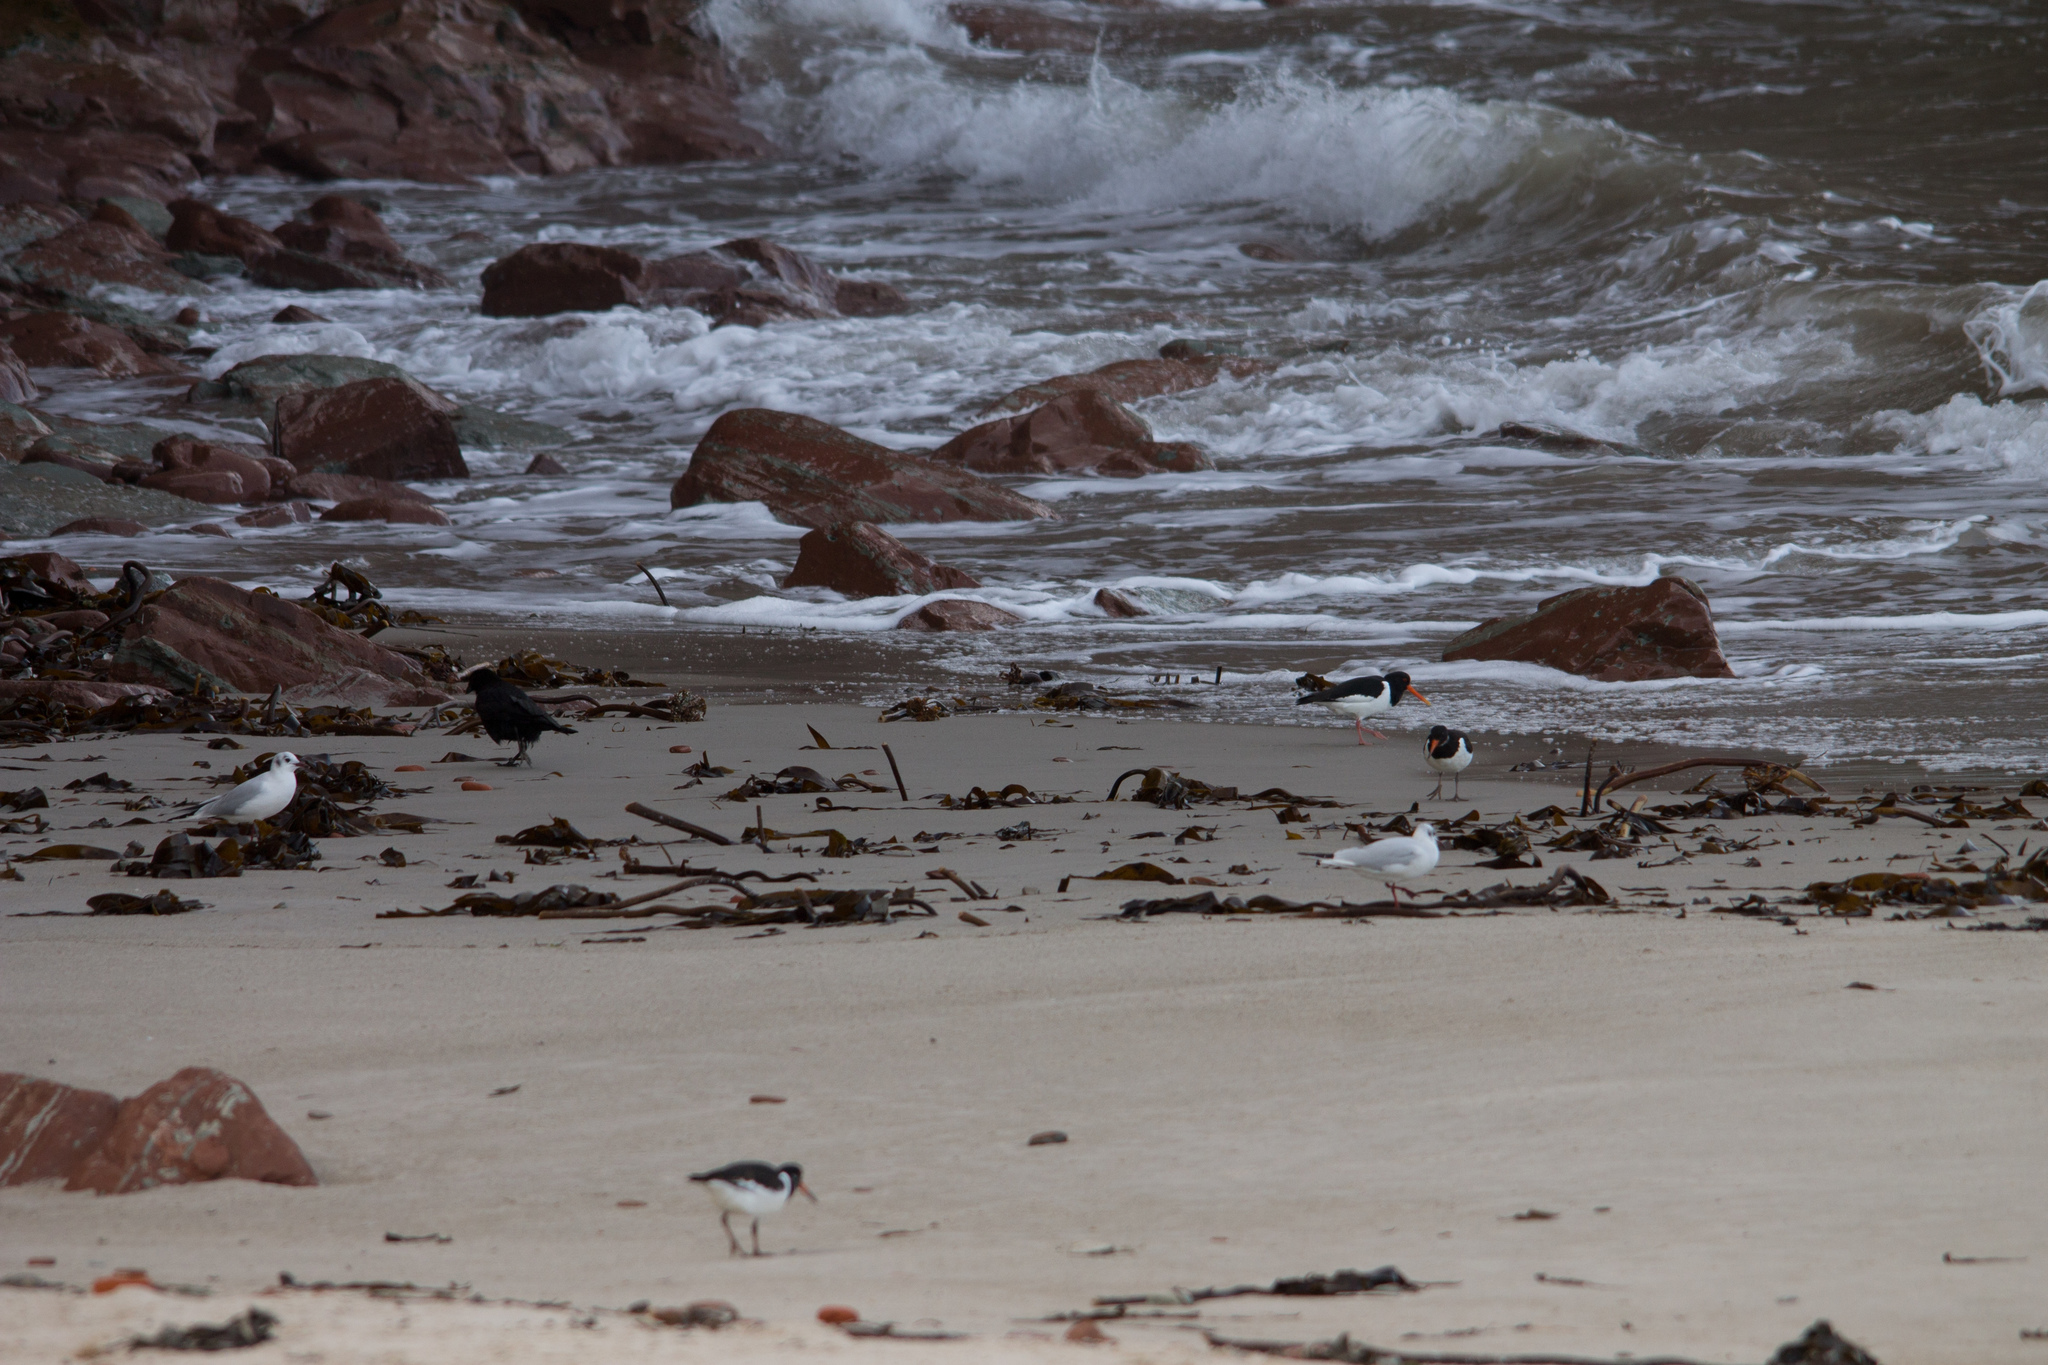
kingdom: Animalia
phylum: Chordata
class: Aves
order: Charadriiformes
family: Laridae
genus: Chroicocephalus
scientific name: Chroicocephalus ridibundus
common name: Black-headed gull
